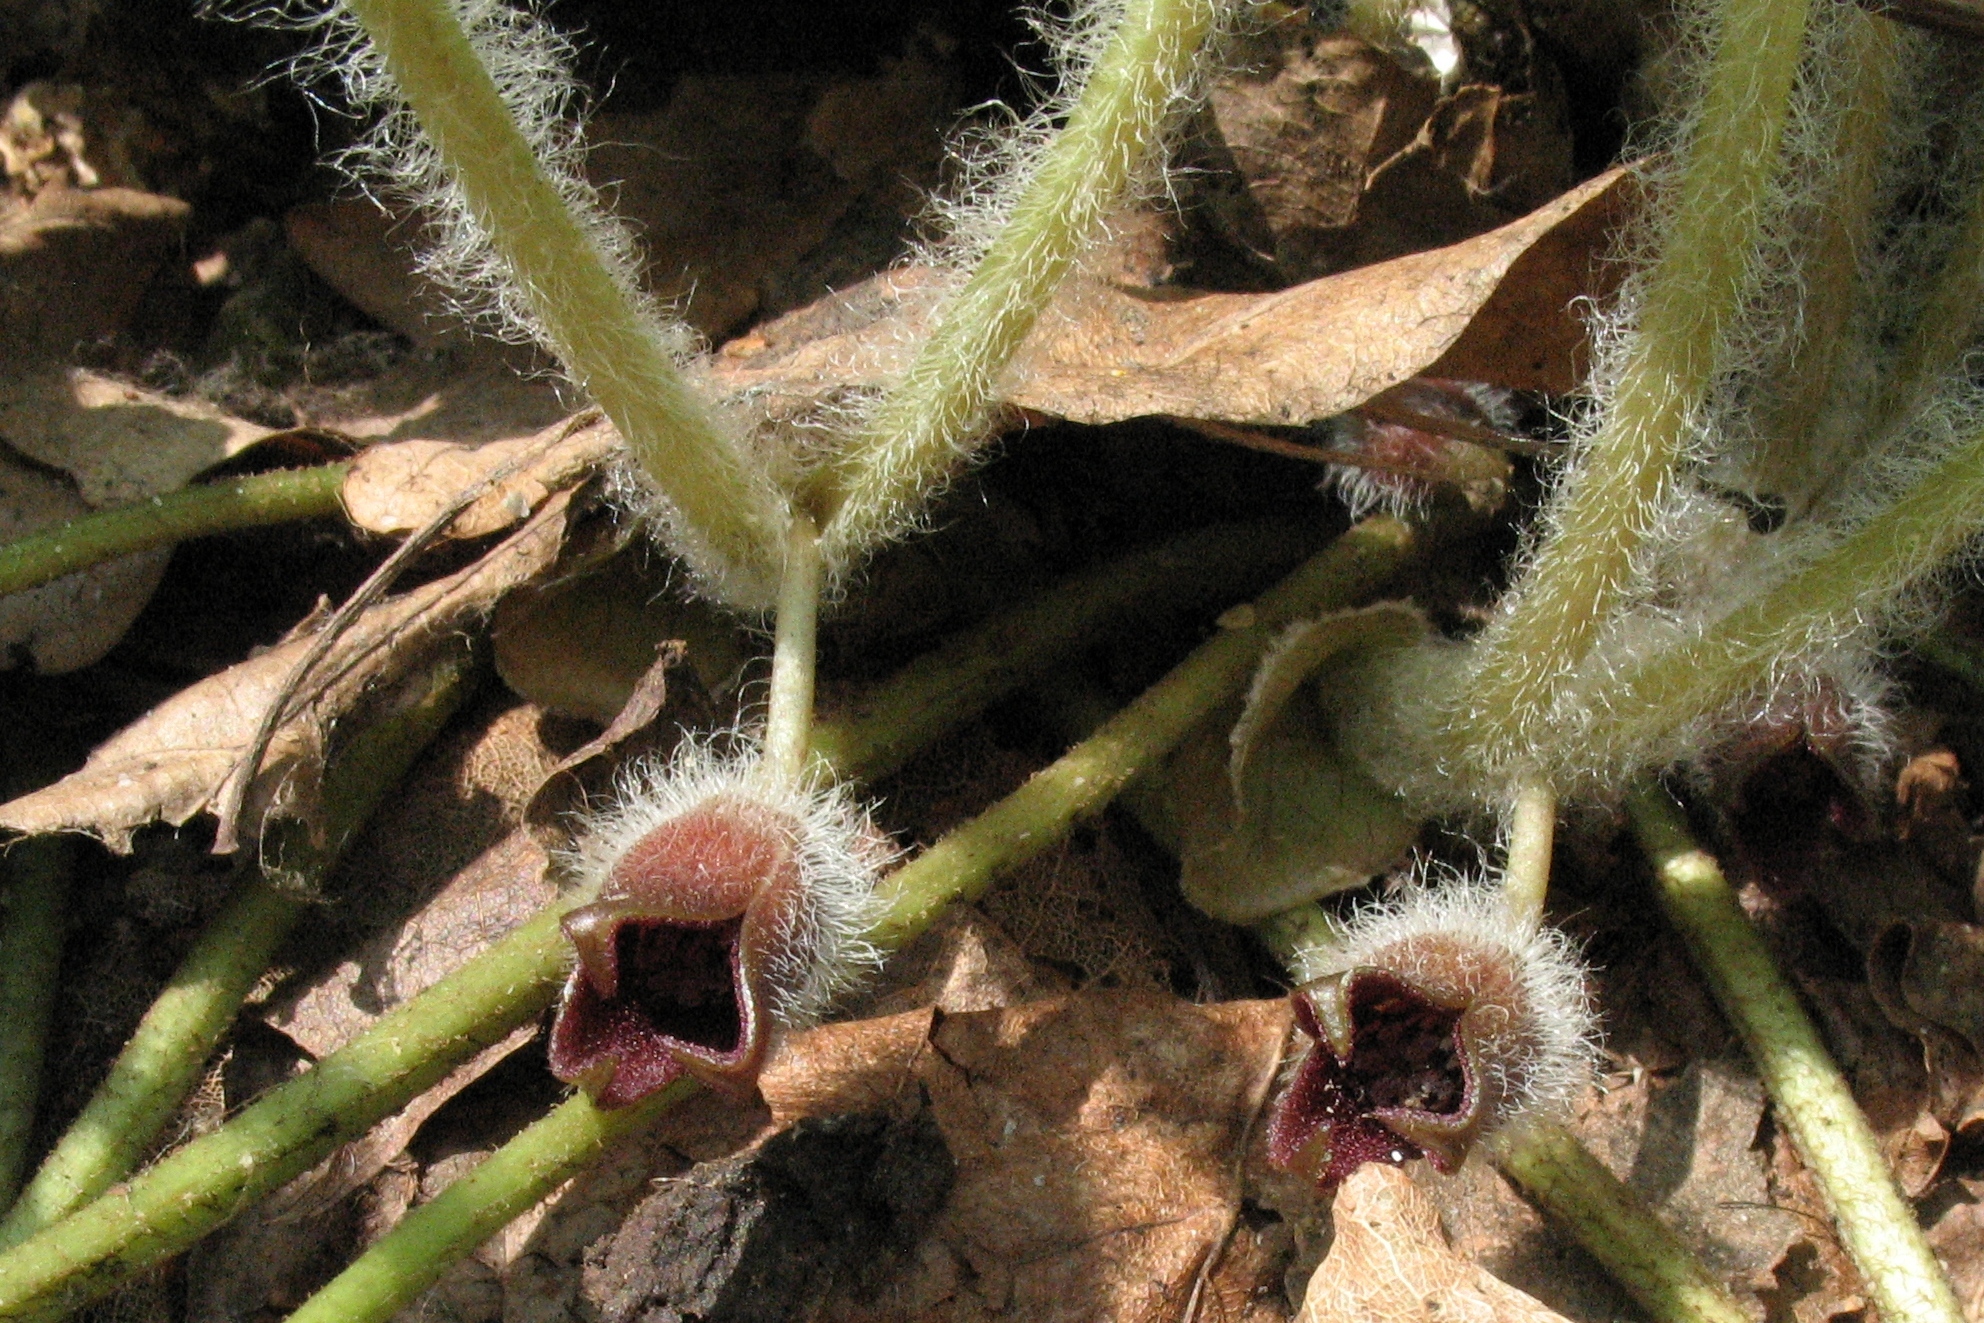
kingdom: Plantae
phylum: Tracheophyta
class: Magnoliopsida
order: Piperales
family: Aristolochiaceae
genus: Asarum
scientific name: Asarum europaeum
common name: Asarabacca
